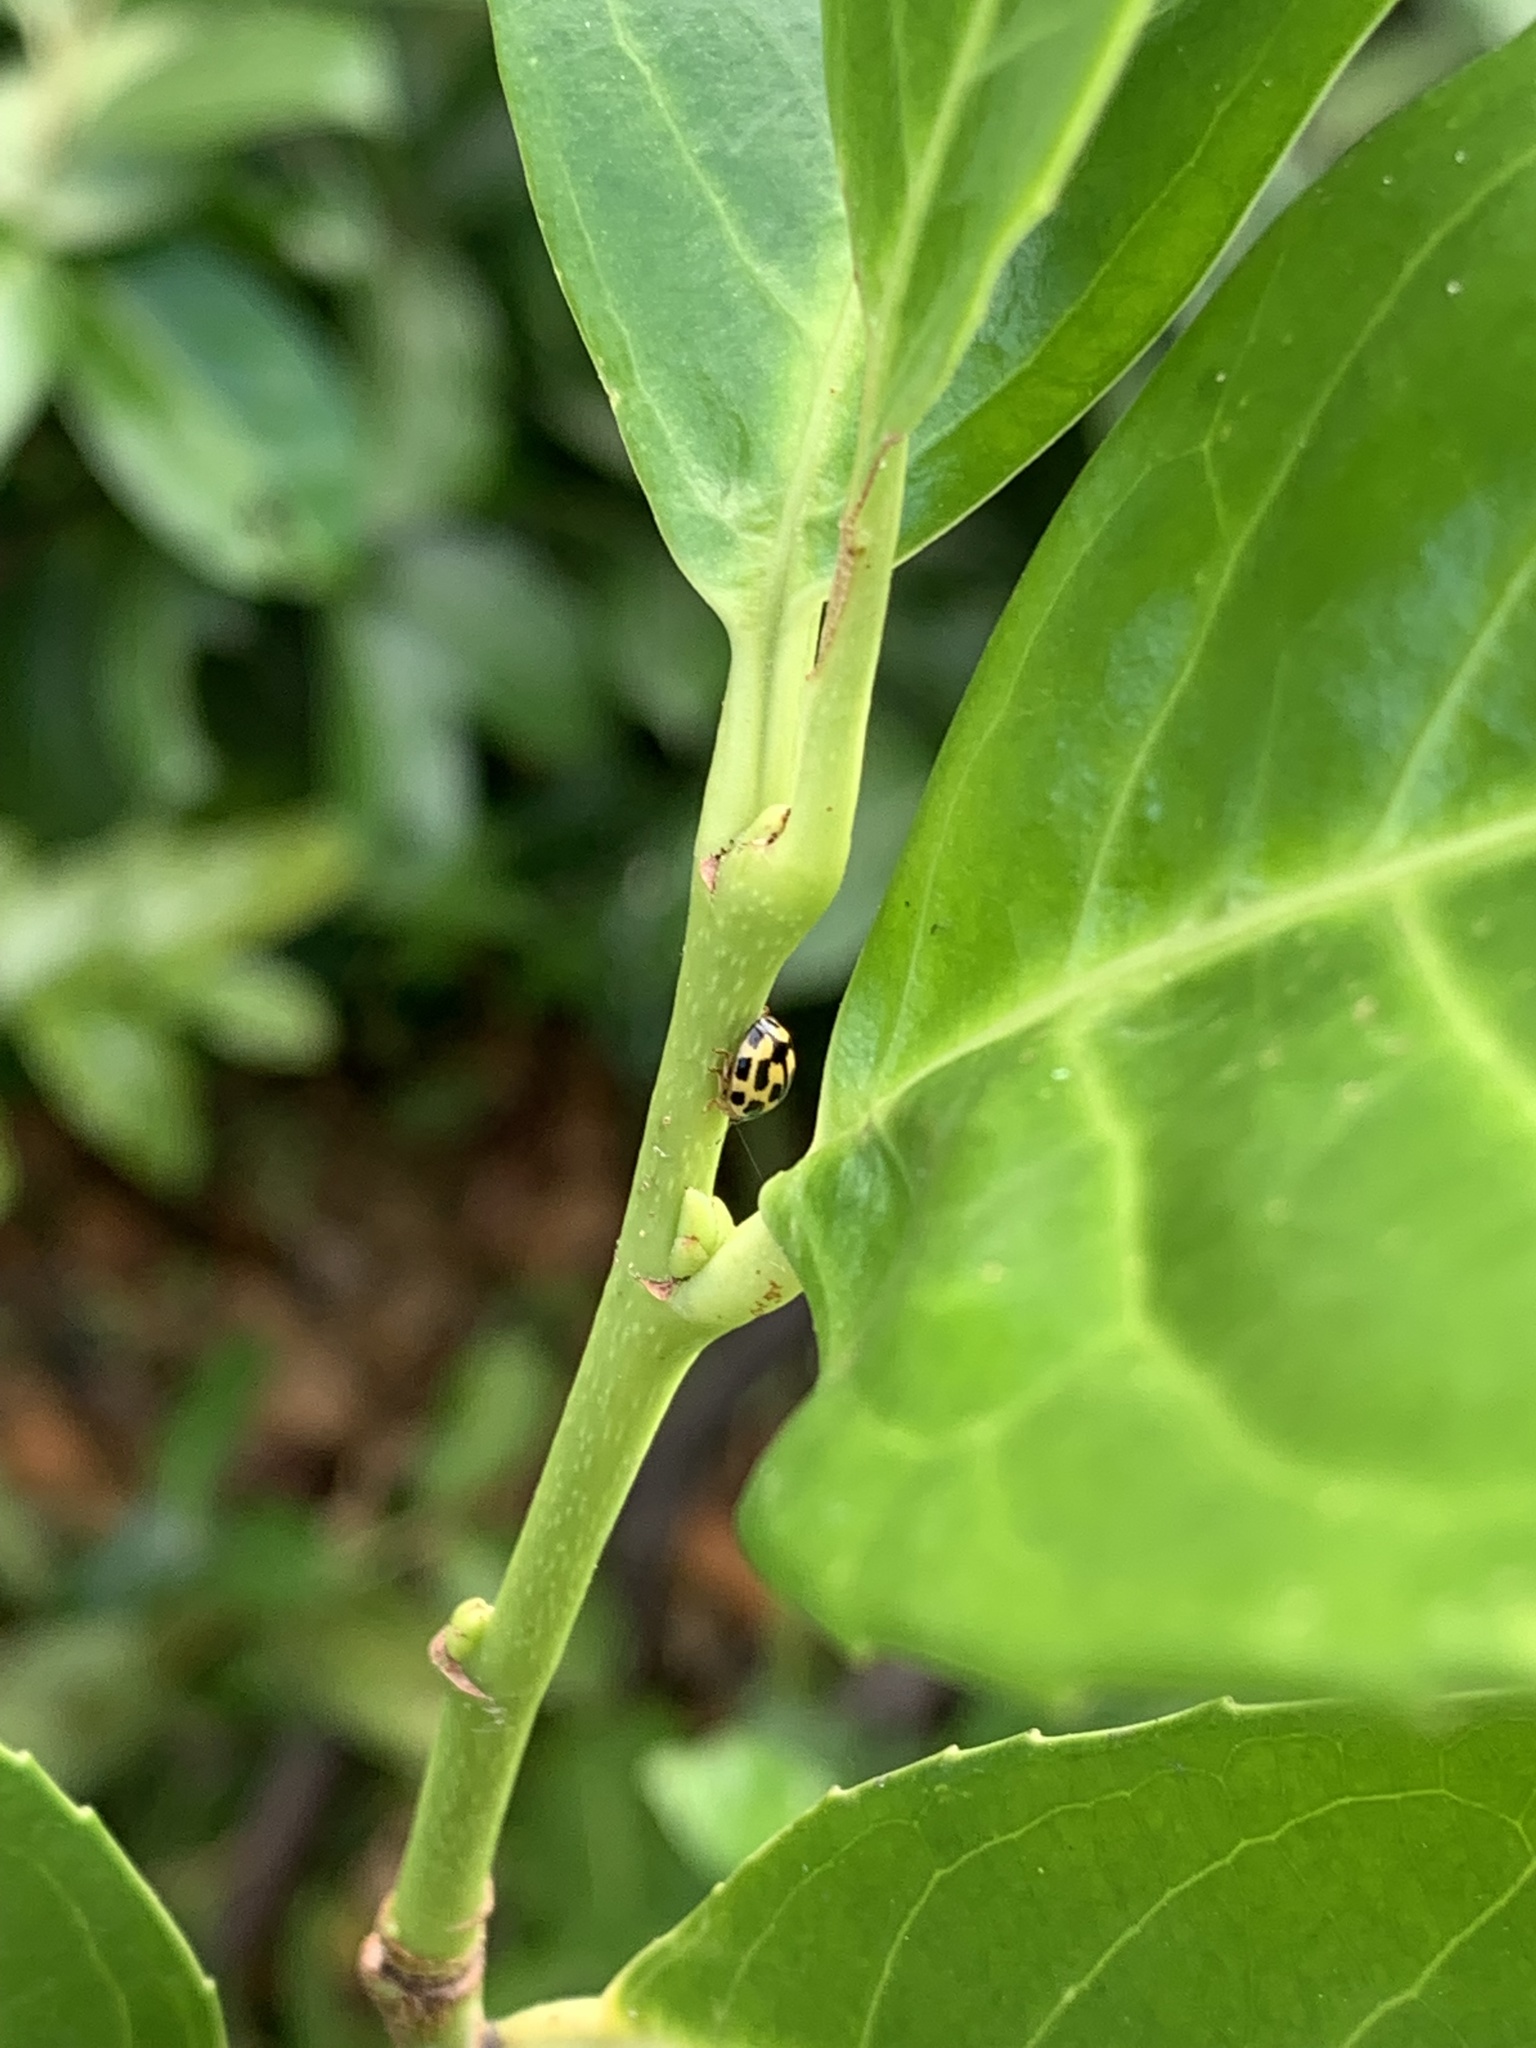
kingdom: Animalia
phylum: Arthropoda
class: Insecta
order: Coleoptera
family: Coccinellidae
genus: Propylaea
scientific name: Propylaea quatuordecimpunctata
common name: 14-spotted ladybird beetle
